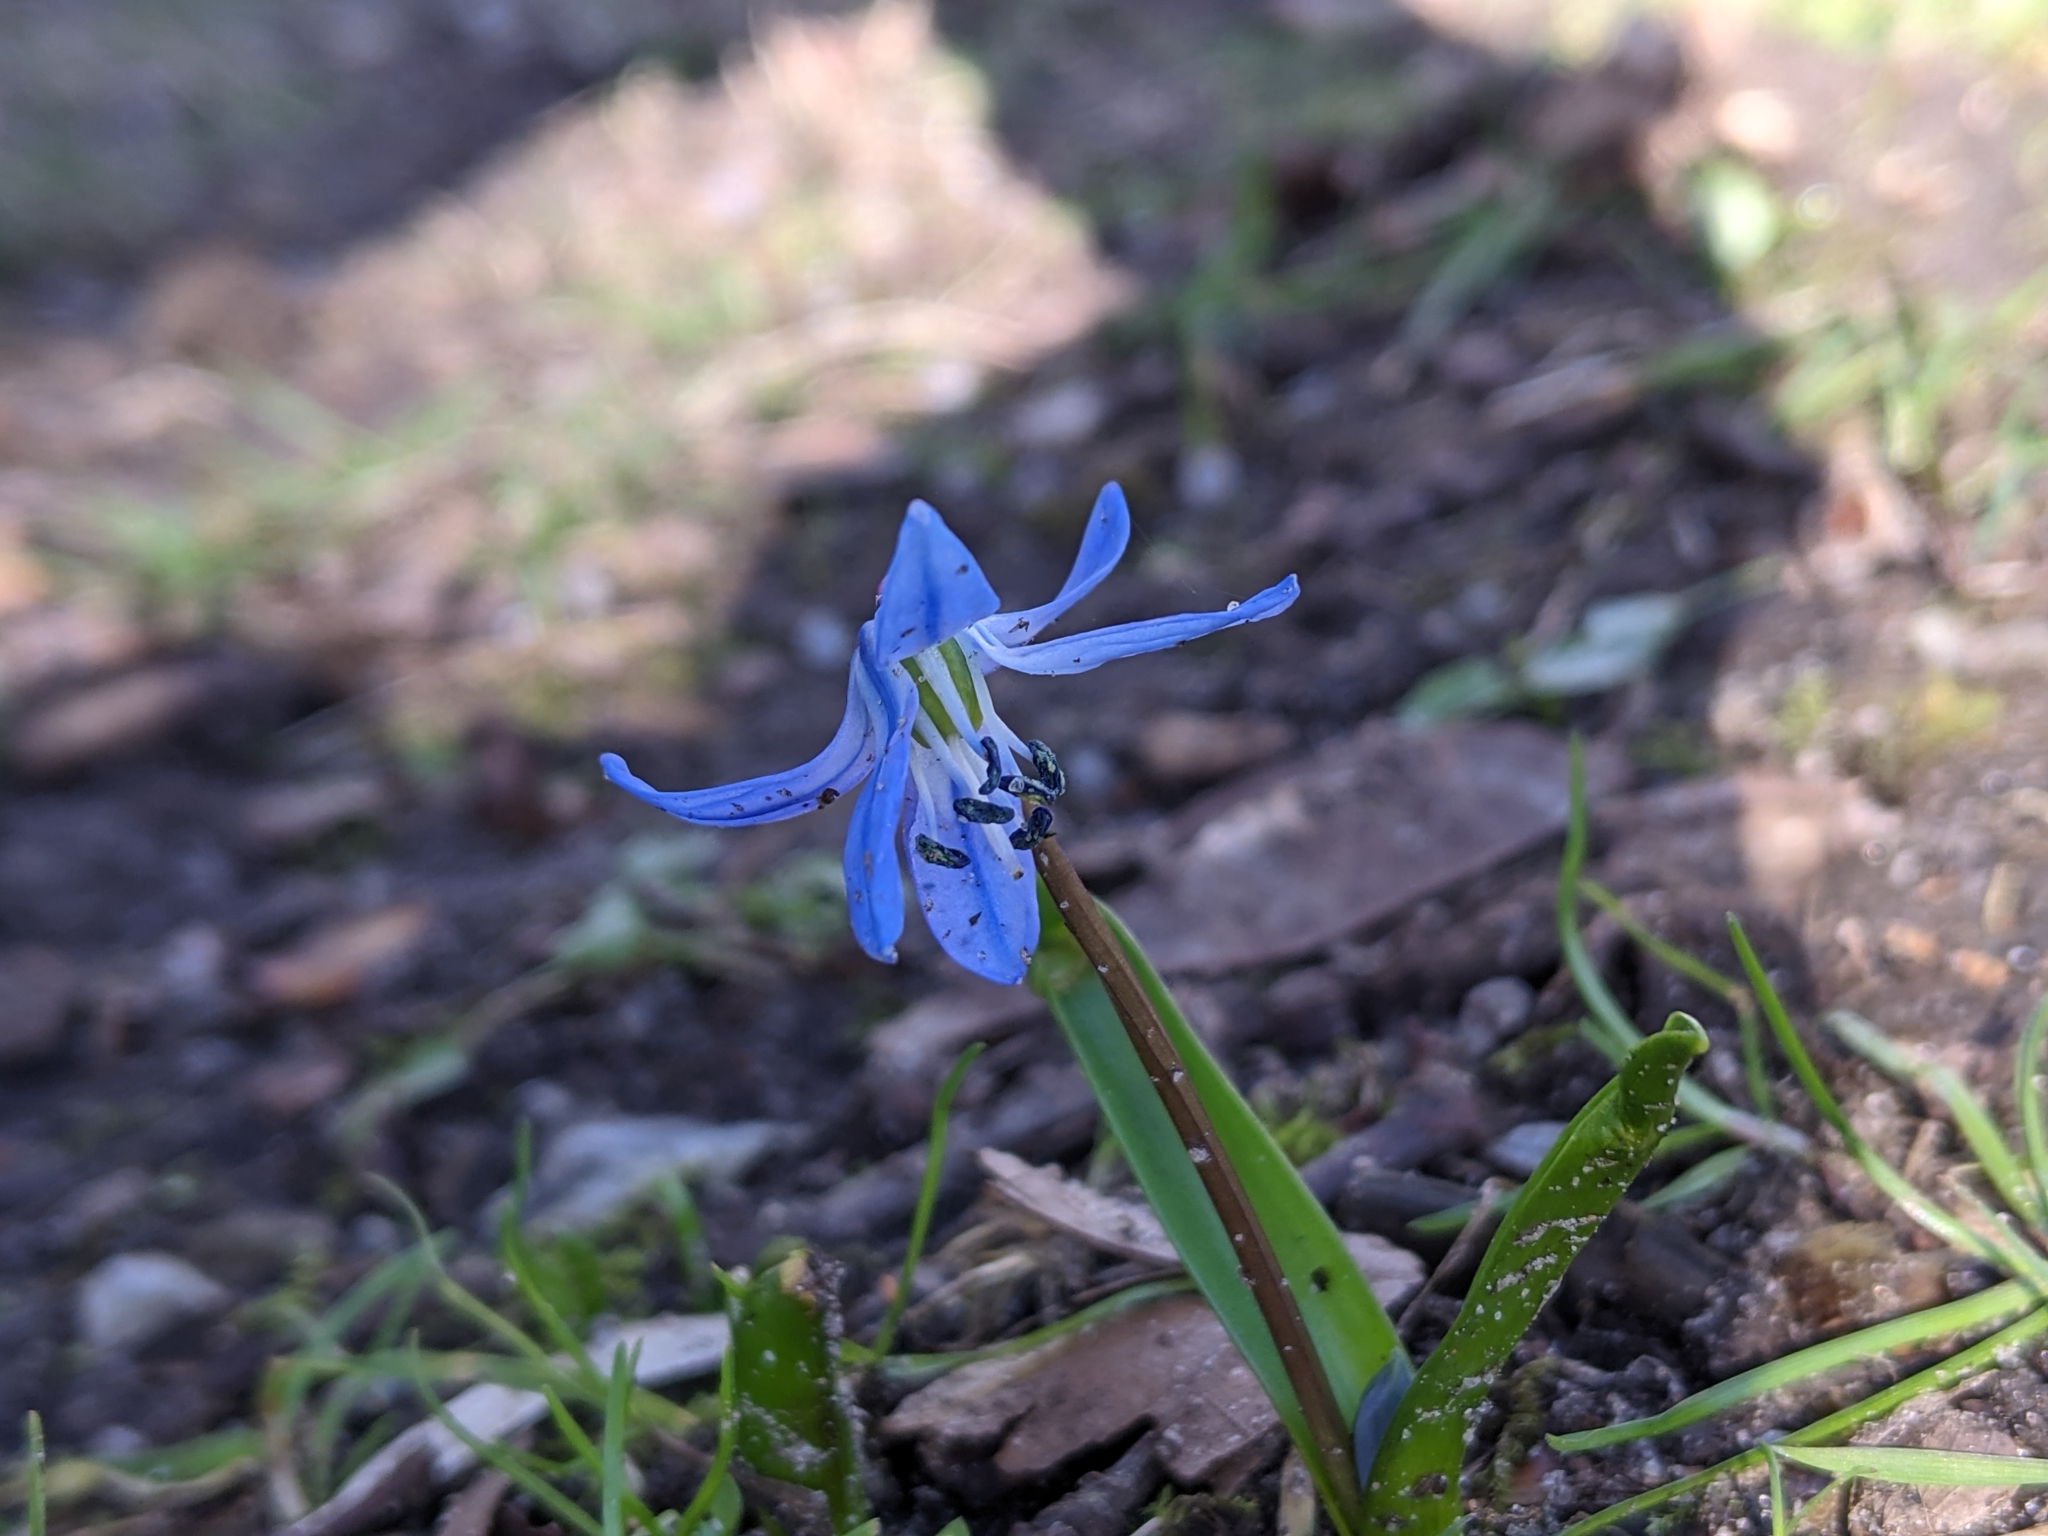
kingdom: Plantae
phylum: Tracheophyta
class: Liliopsida
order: Asparagales
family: Asparagaceae
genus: Scilla
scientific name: Scilla siberica
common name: Siberian squill
